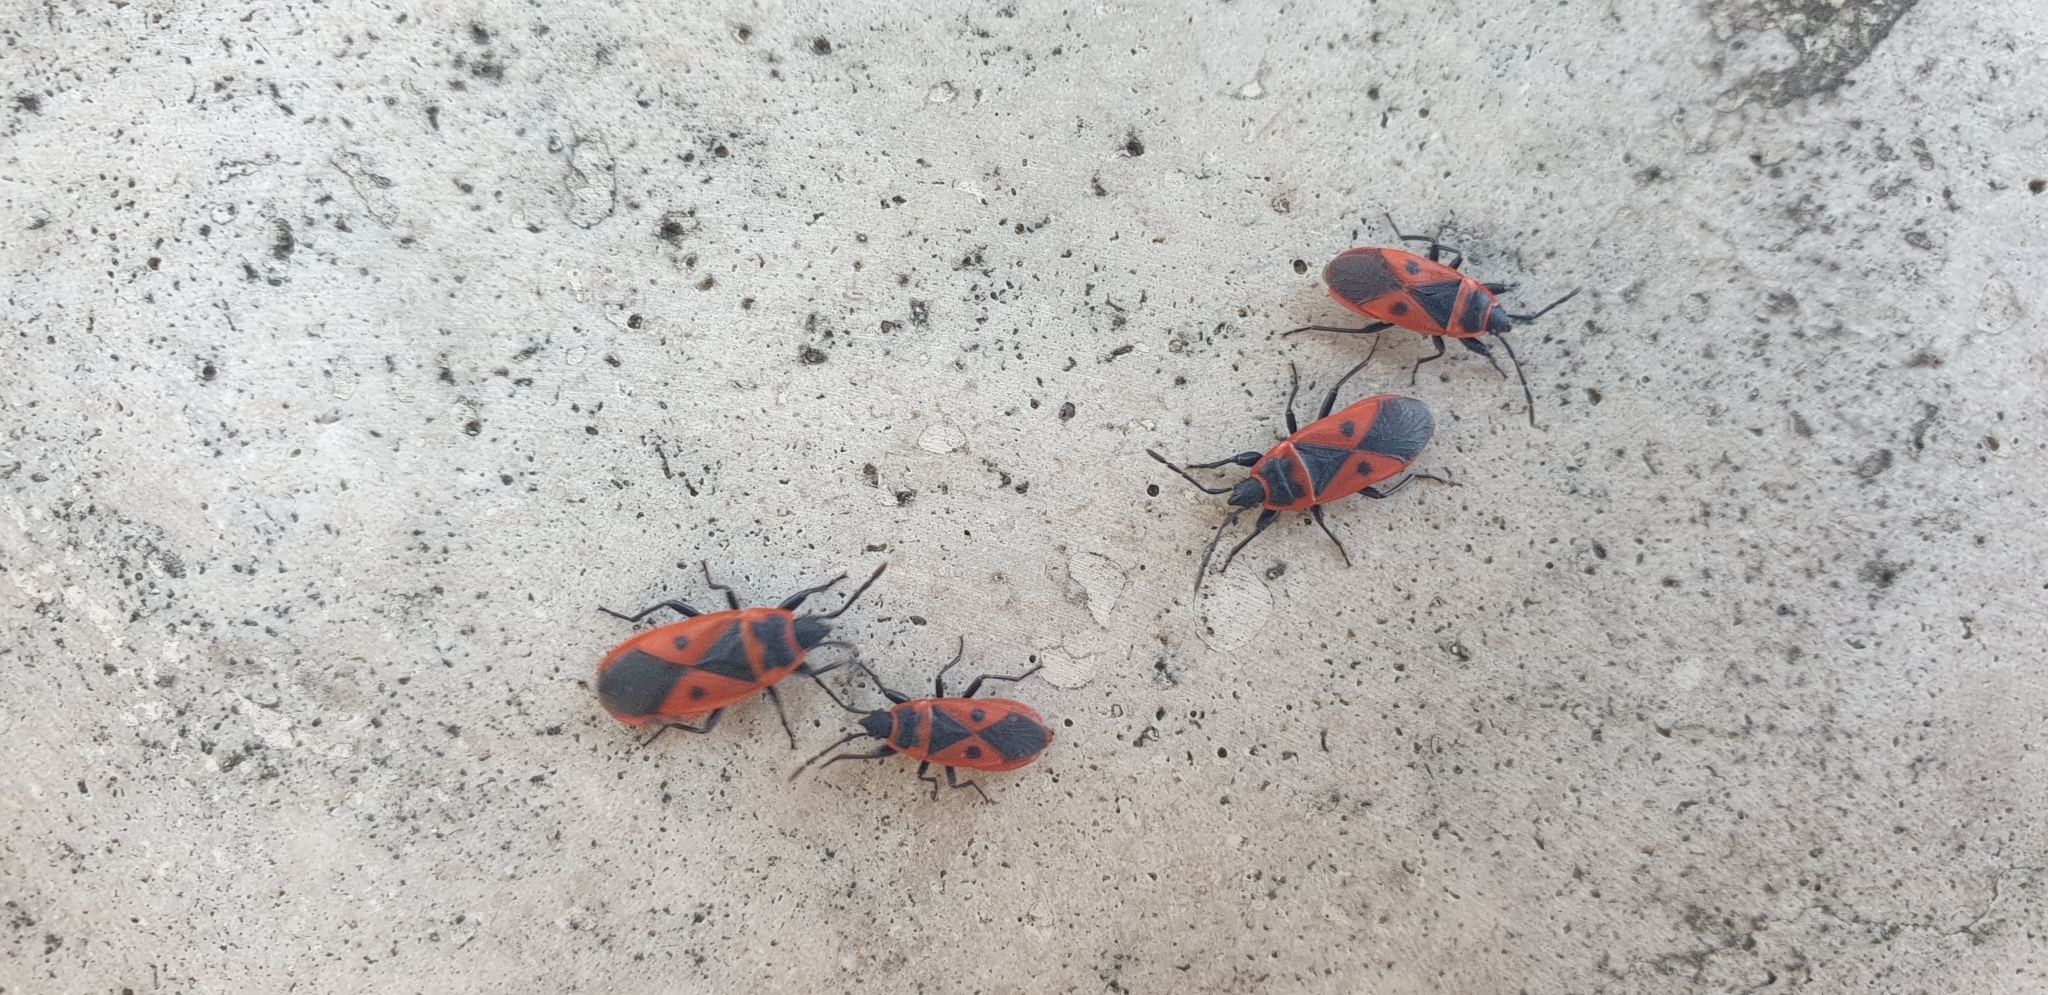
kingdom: Animalia
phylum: Arthropoda
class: Insecta
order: Hemiptera
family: Pyrrhocoridae
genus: Scantius
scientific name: Scantius aegyptius
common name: Red bug
